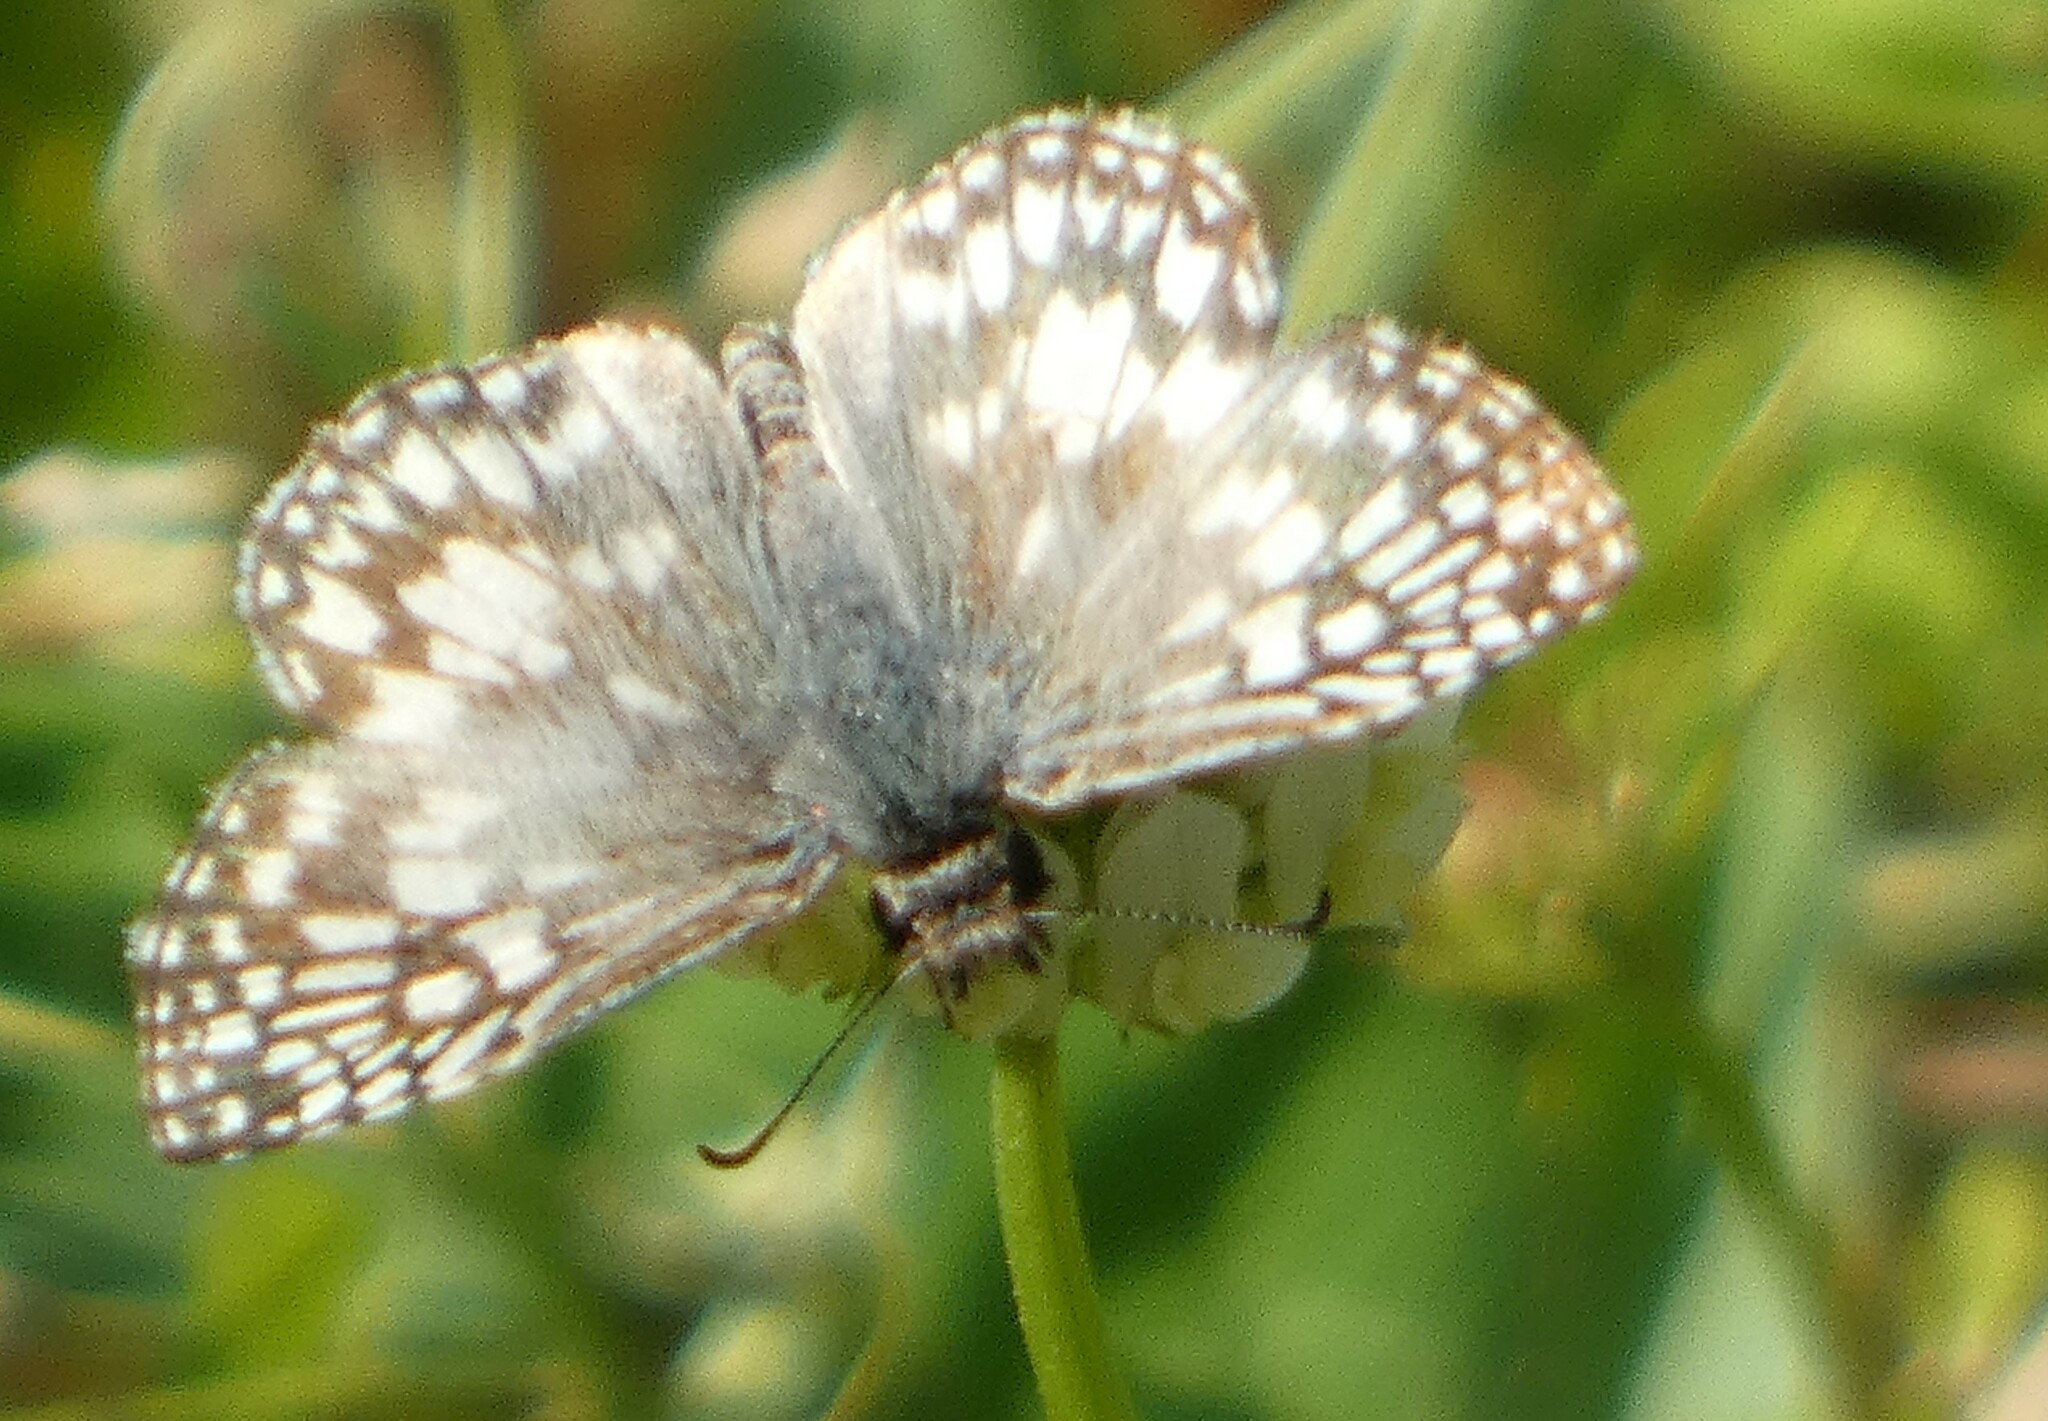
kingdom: Animalia
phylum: Arthropoda
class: Insecta
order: Lepidoptera
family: Hesperiidae
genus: Pyrgus
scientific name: Pyrgus oileus
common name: Tropical checkered-skipper
